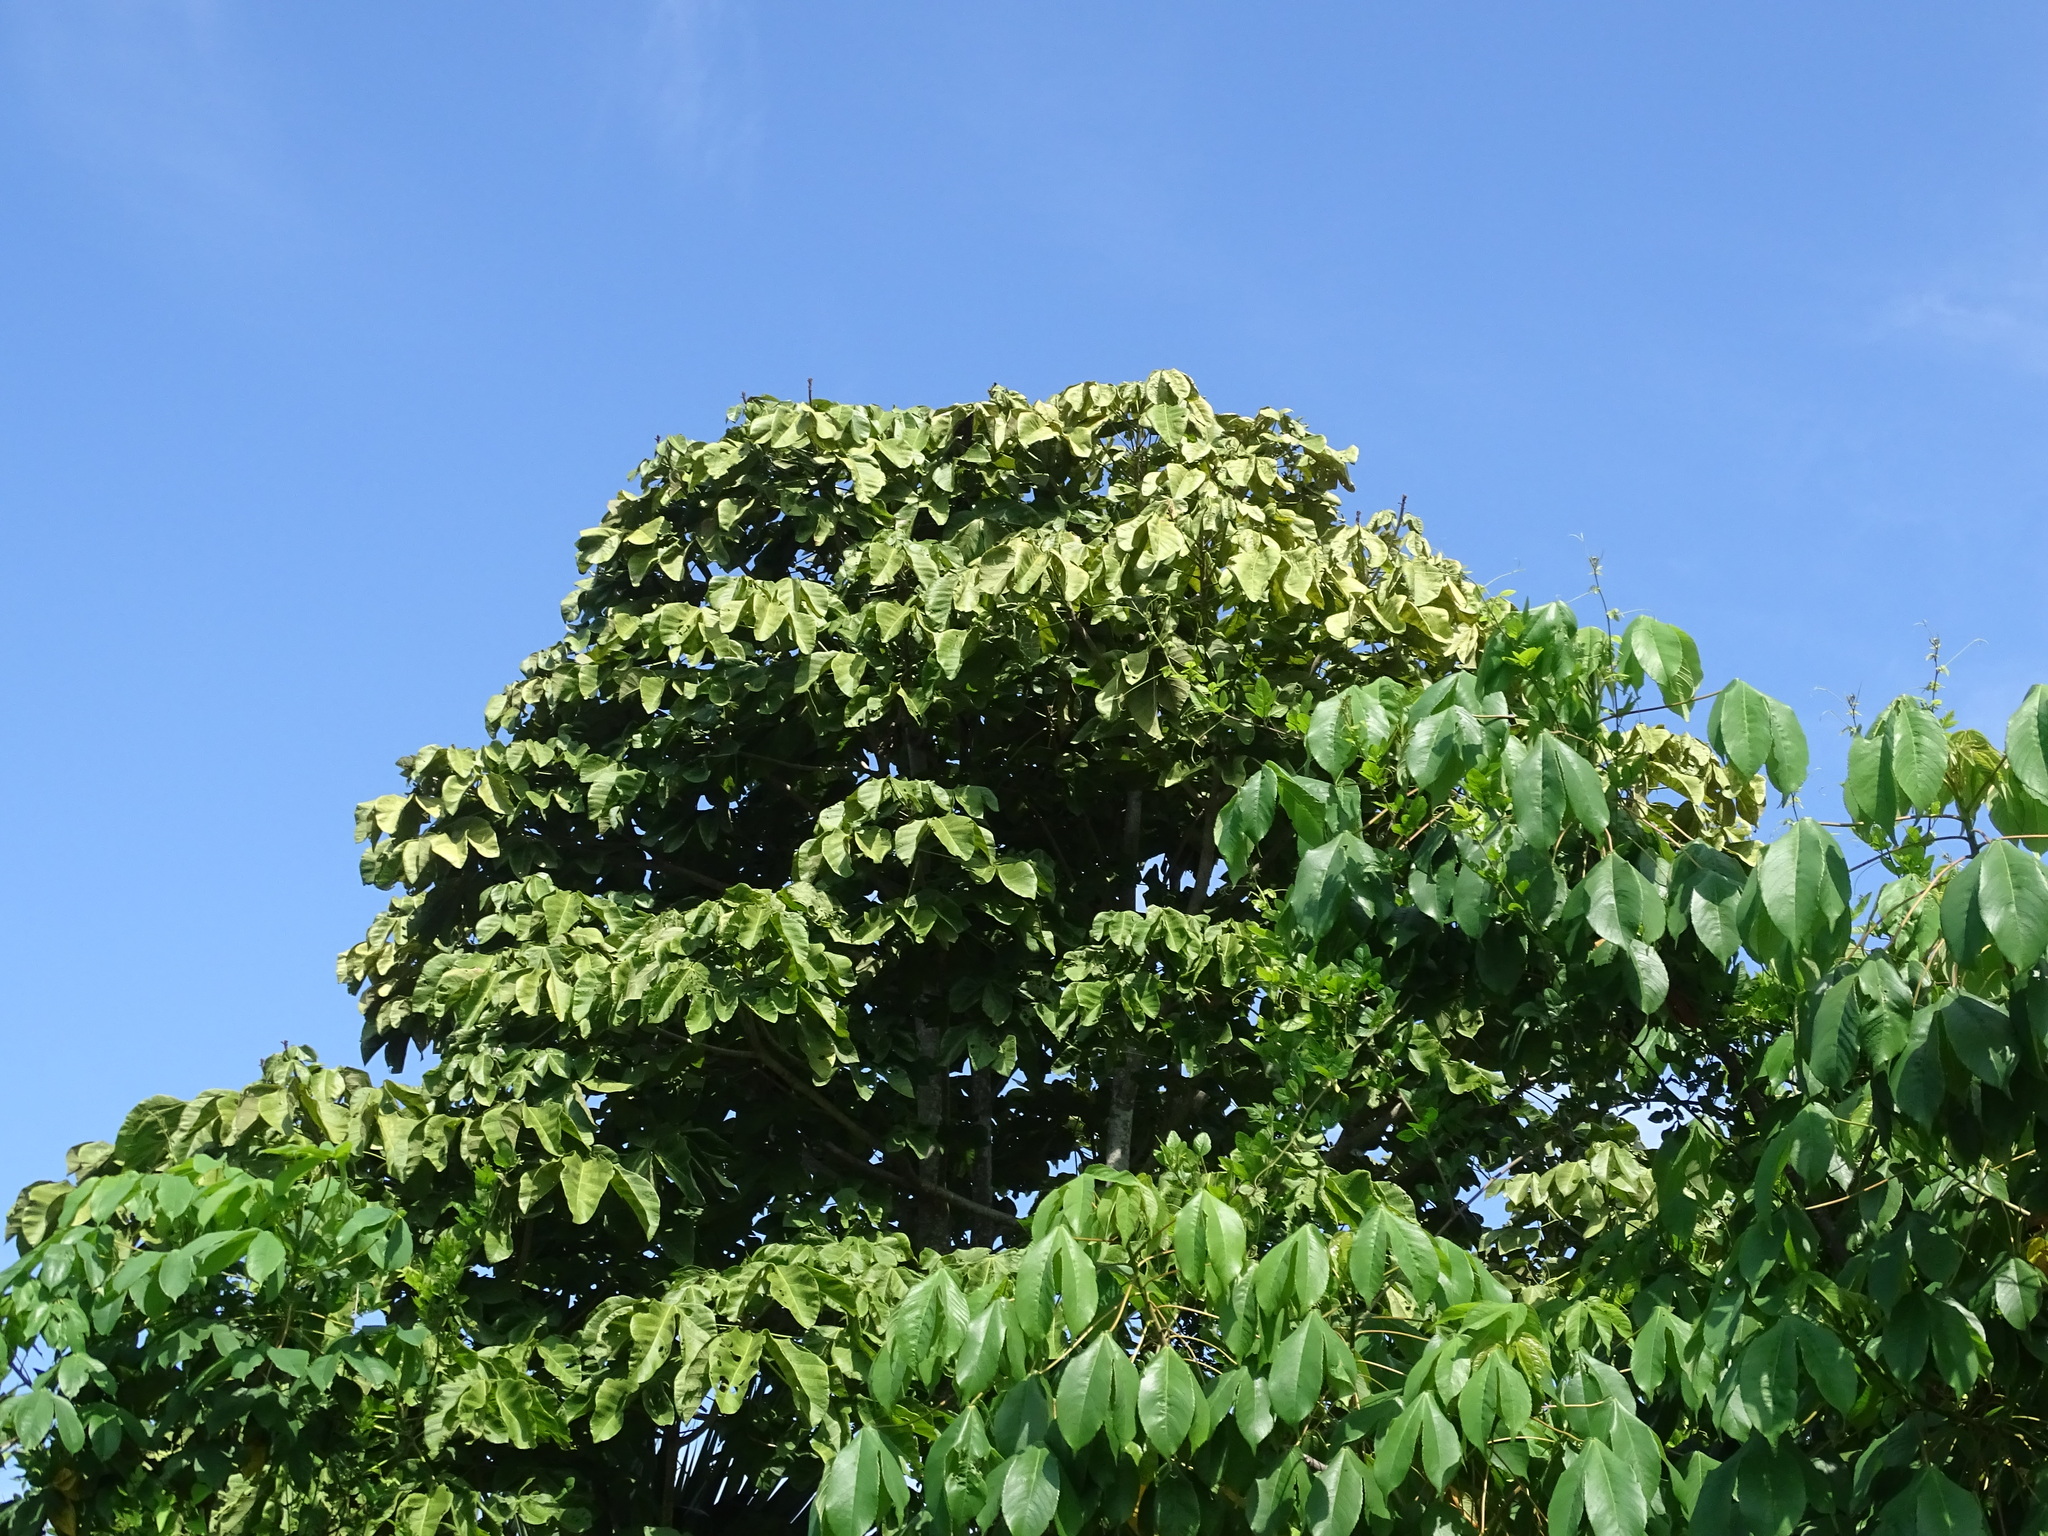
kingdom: Plantae
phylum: Tracheophyta
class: Magnoliopsida
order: Malvales
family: Cochlospermaceae
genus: Cochlospermum
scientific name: Cochlospermum vitifolium
